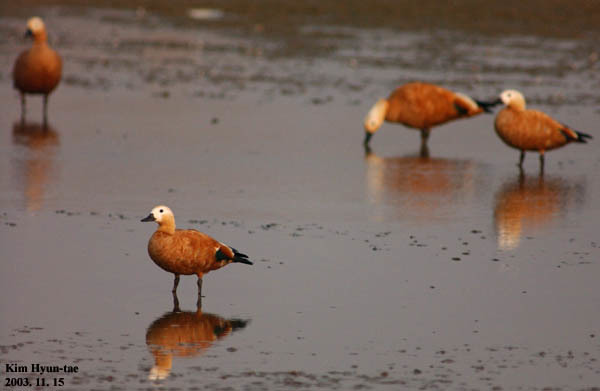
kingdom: Animalia
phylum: Chordata
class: Aves
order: Anseriformes
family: Anatidae
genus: Tadorna
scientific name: Tadorna ferruginea
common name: Ruddy shelduck
